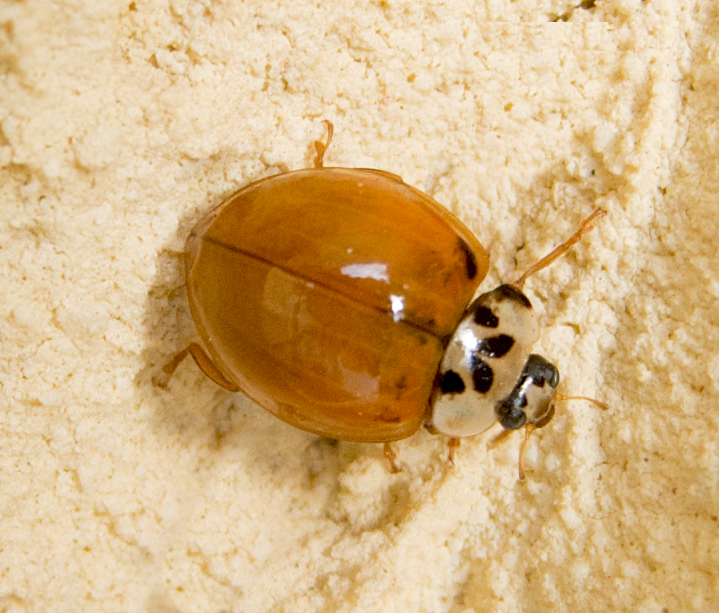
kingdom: Animalia
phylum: Arthropoda
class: Insecta
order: Coleoptera
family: Coccinellidae
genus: Harmonia
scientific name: Harmonia axyridis
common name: Harlequin ladybird
